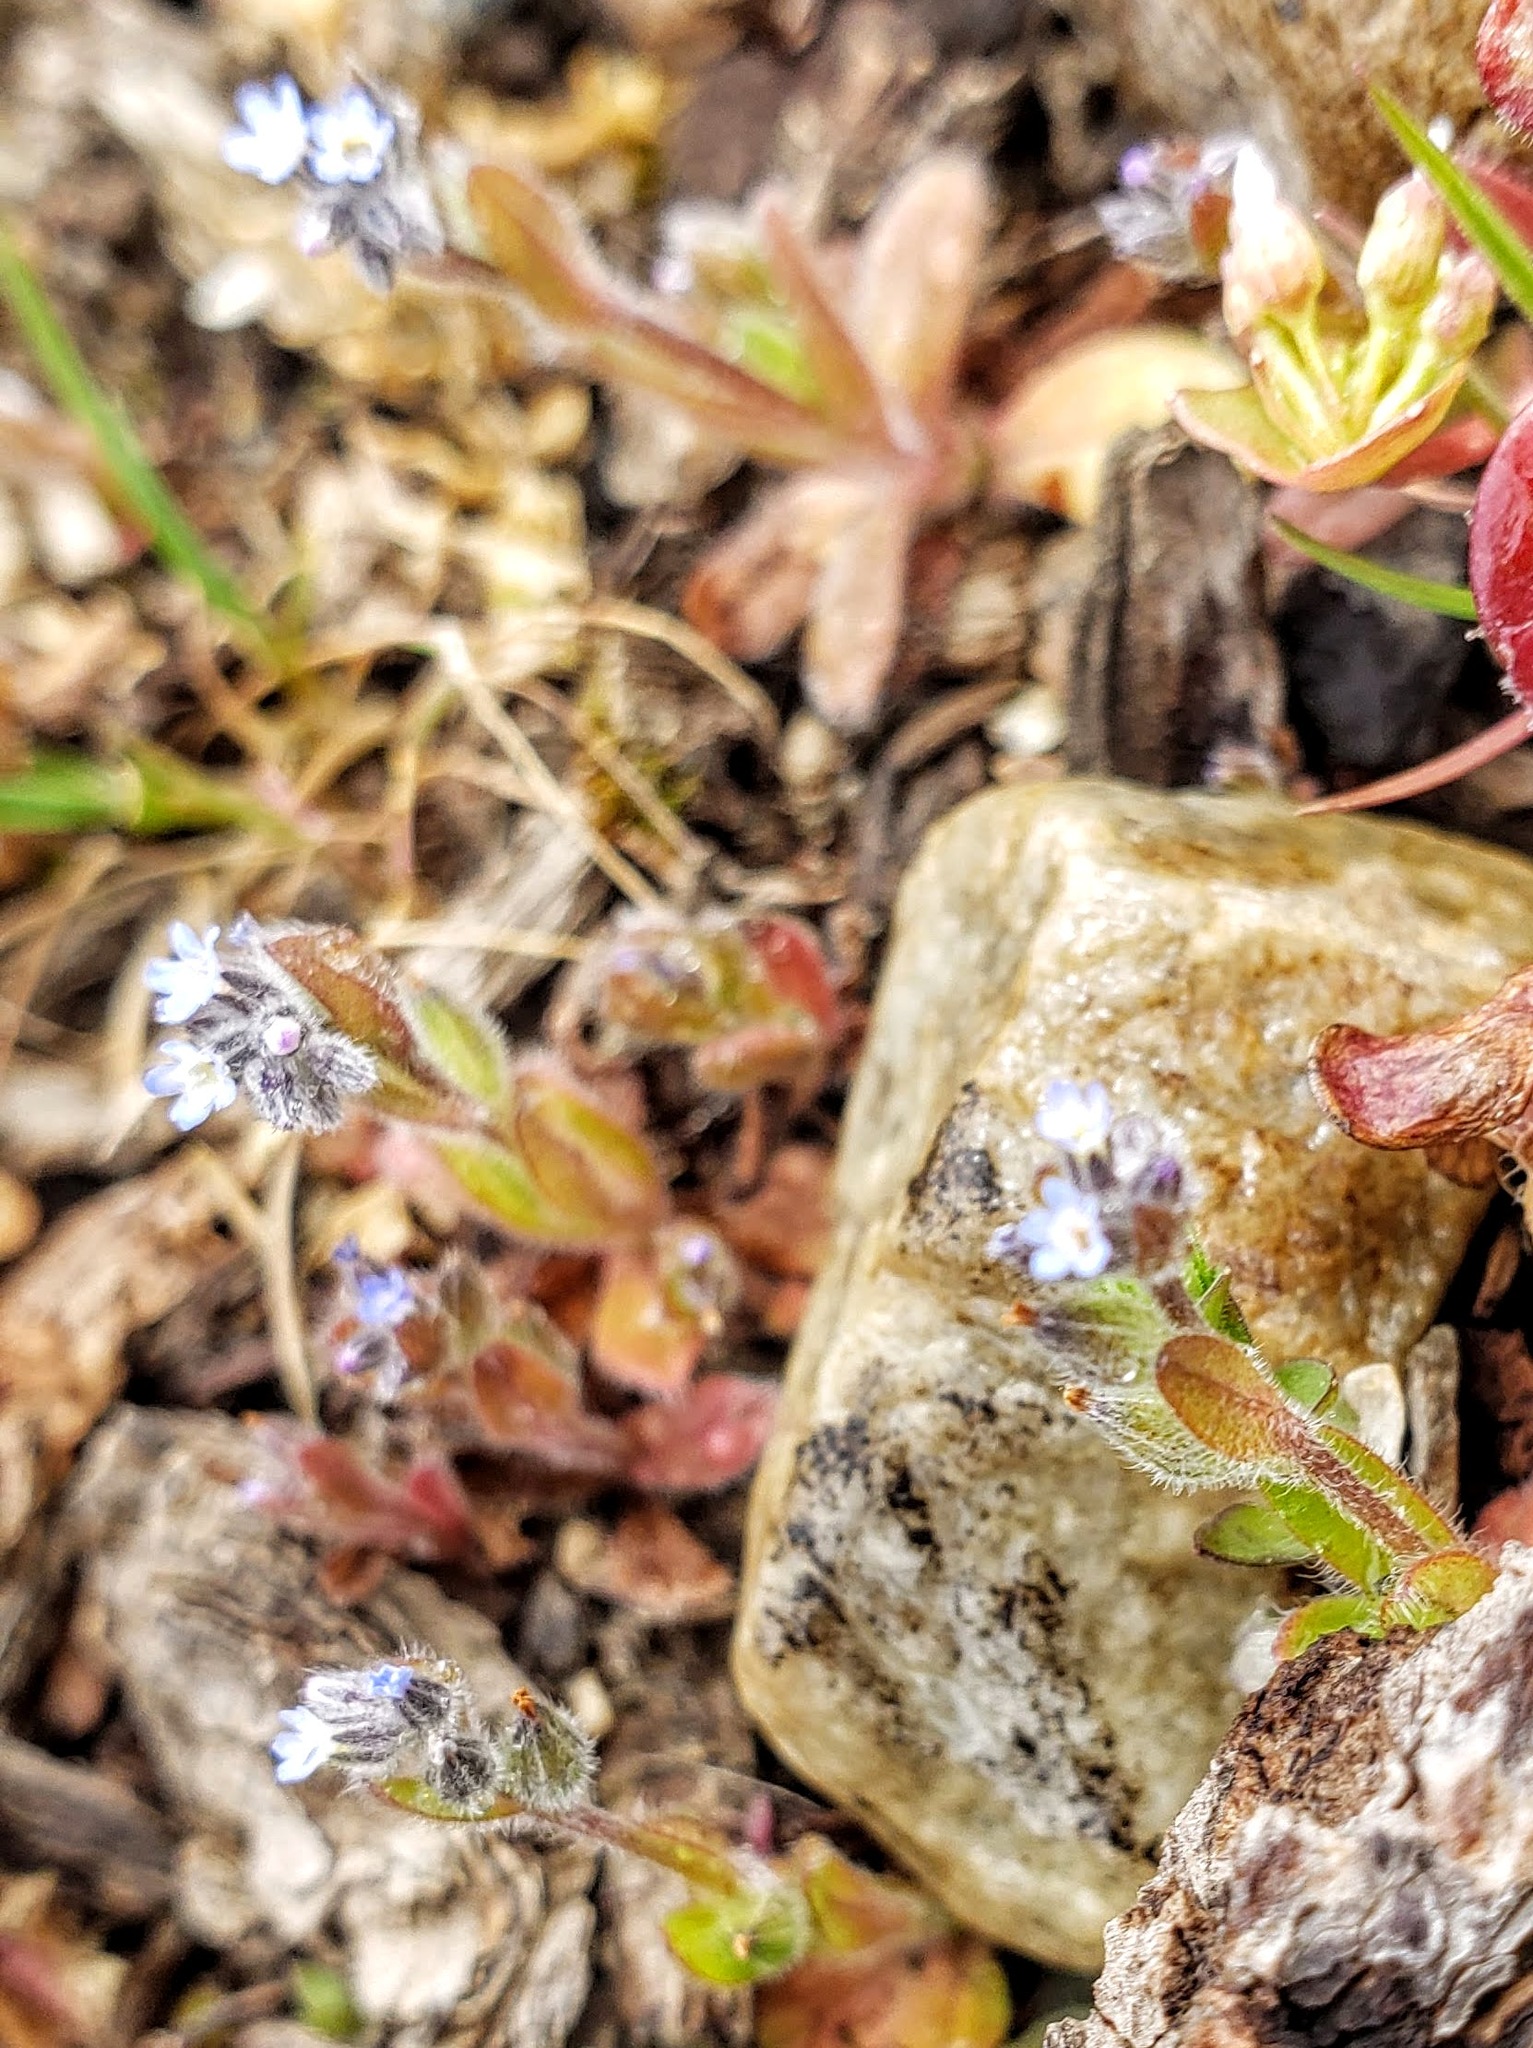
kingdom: Plantae
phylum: Tracheophyta
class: Magnoliopsida
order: Boraginales
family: Boraginaceae
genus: Myosotis
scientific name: Myosotis stricta
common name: Strict forget-me-not
